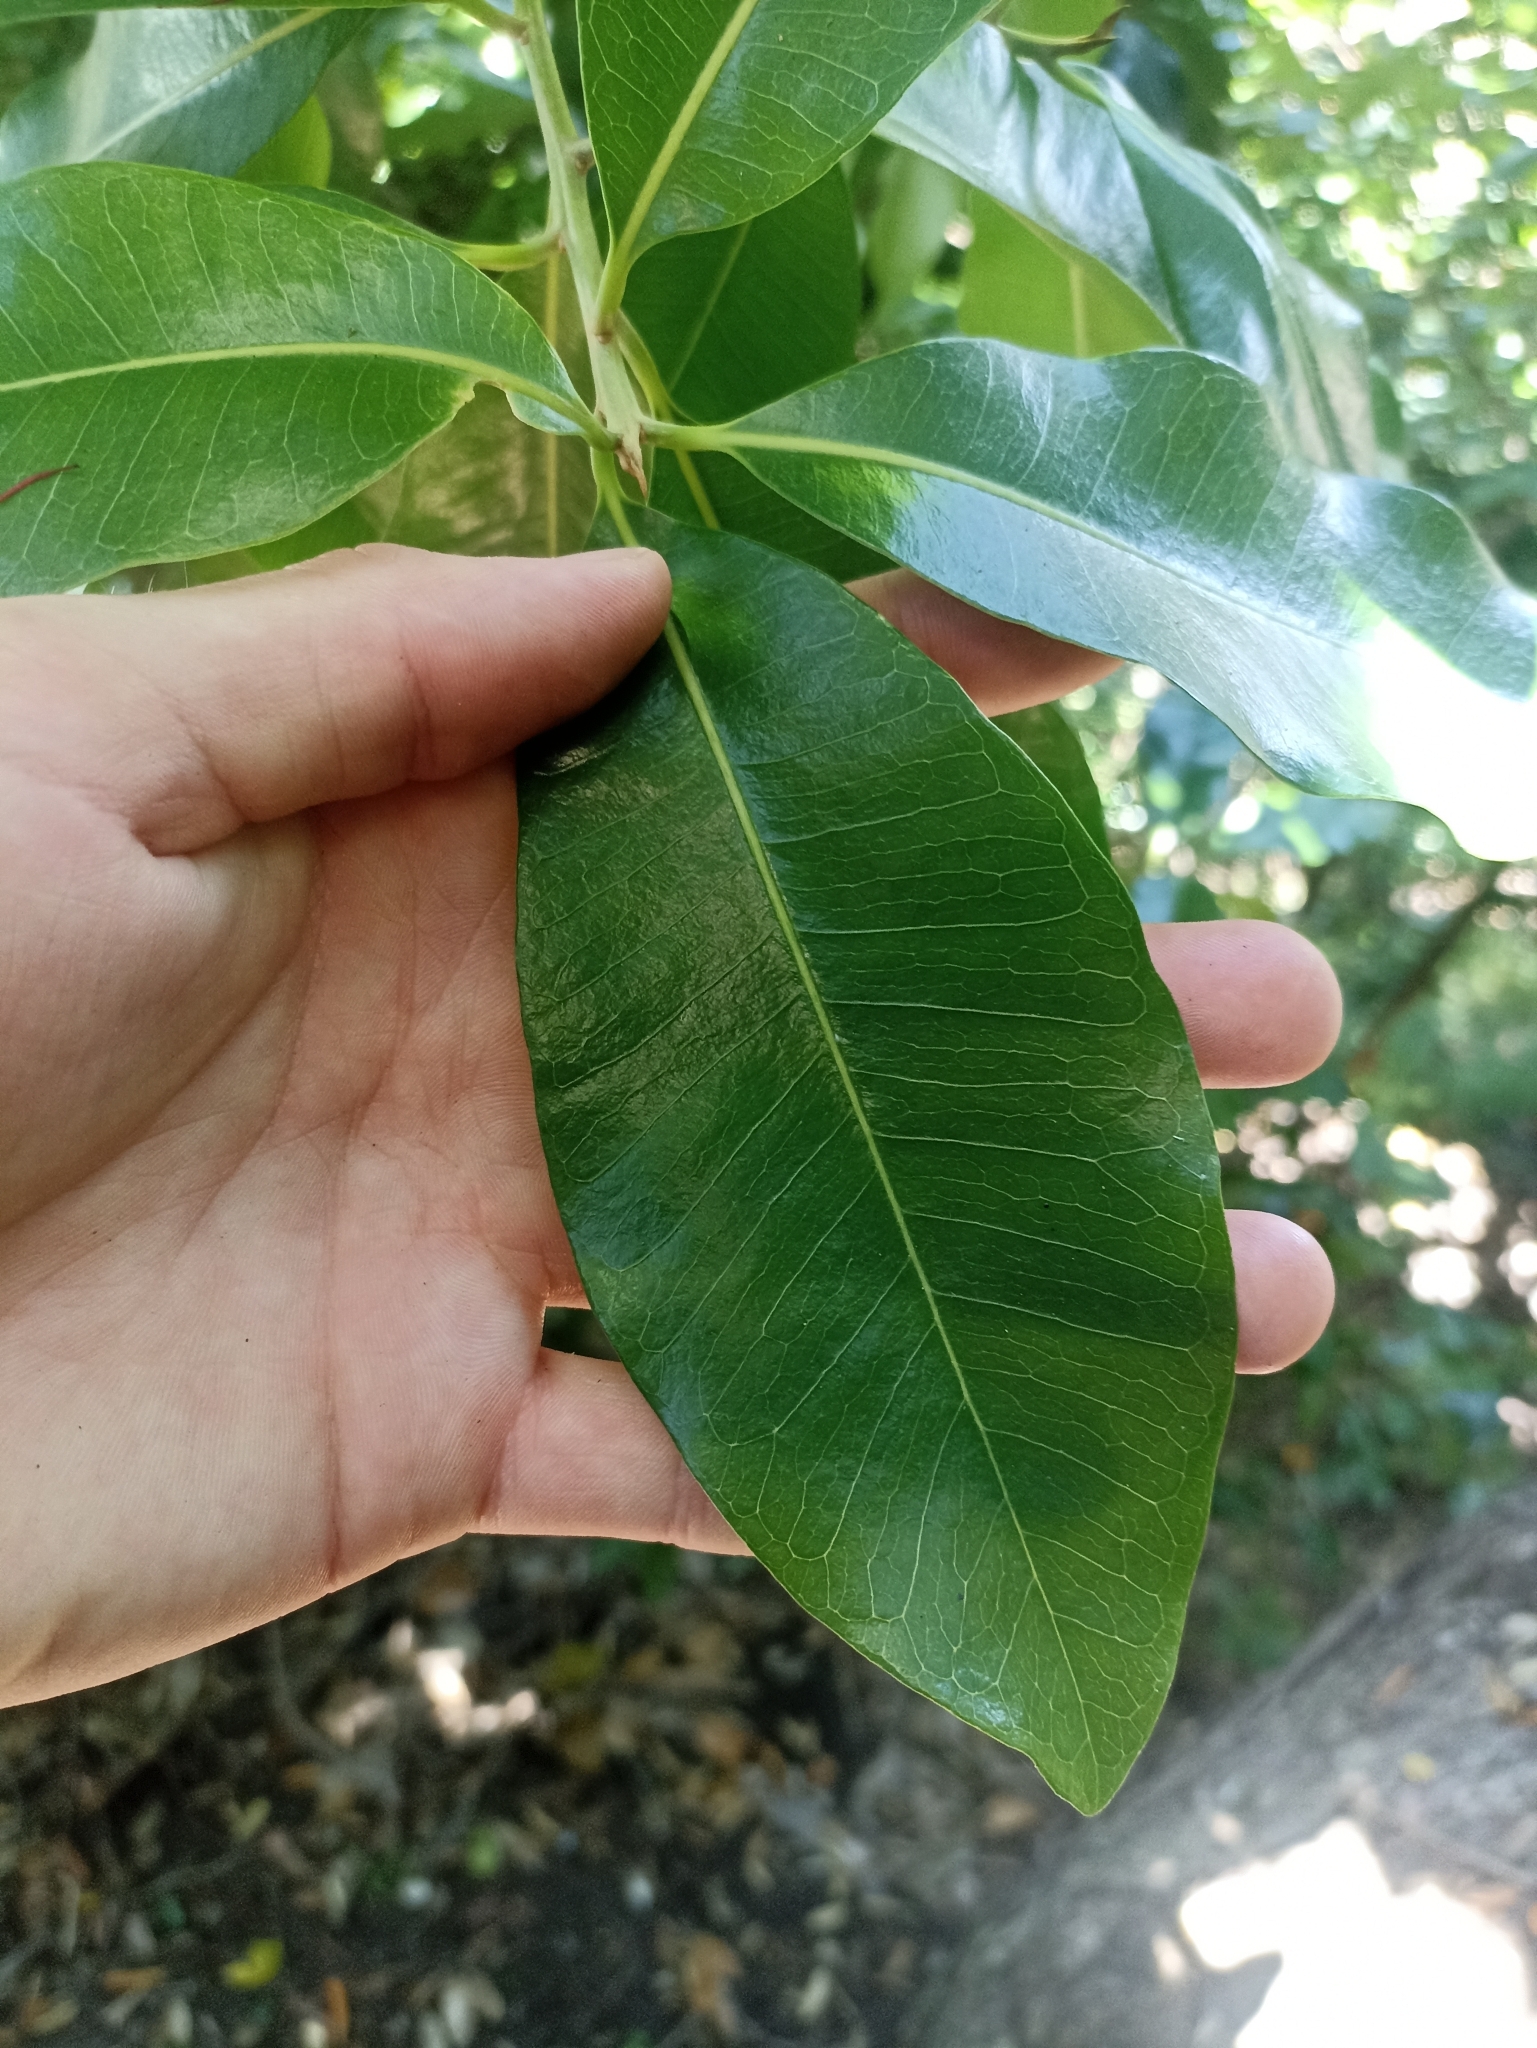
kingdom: Plantae
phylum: Tracheophyta
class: Magnoliopsida
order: Ericales
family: Sapotaceae
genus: Planchonella
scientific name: Planchonella costata
